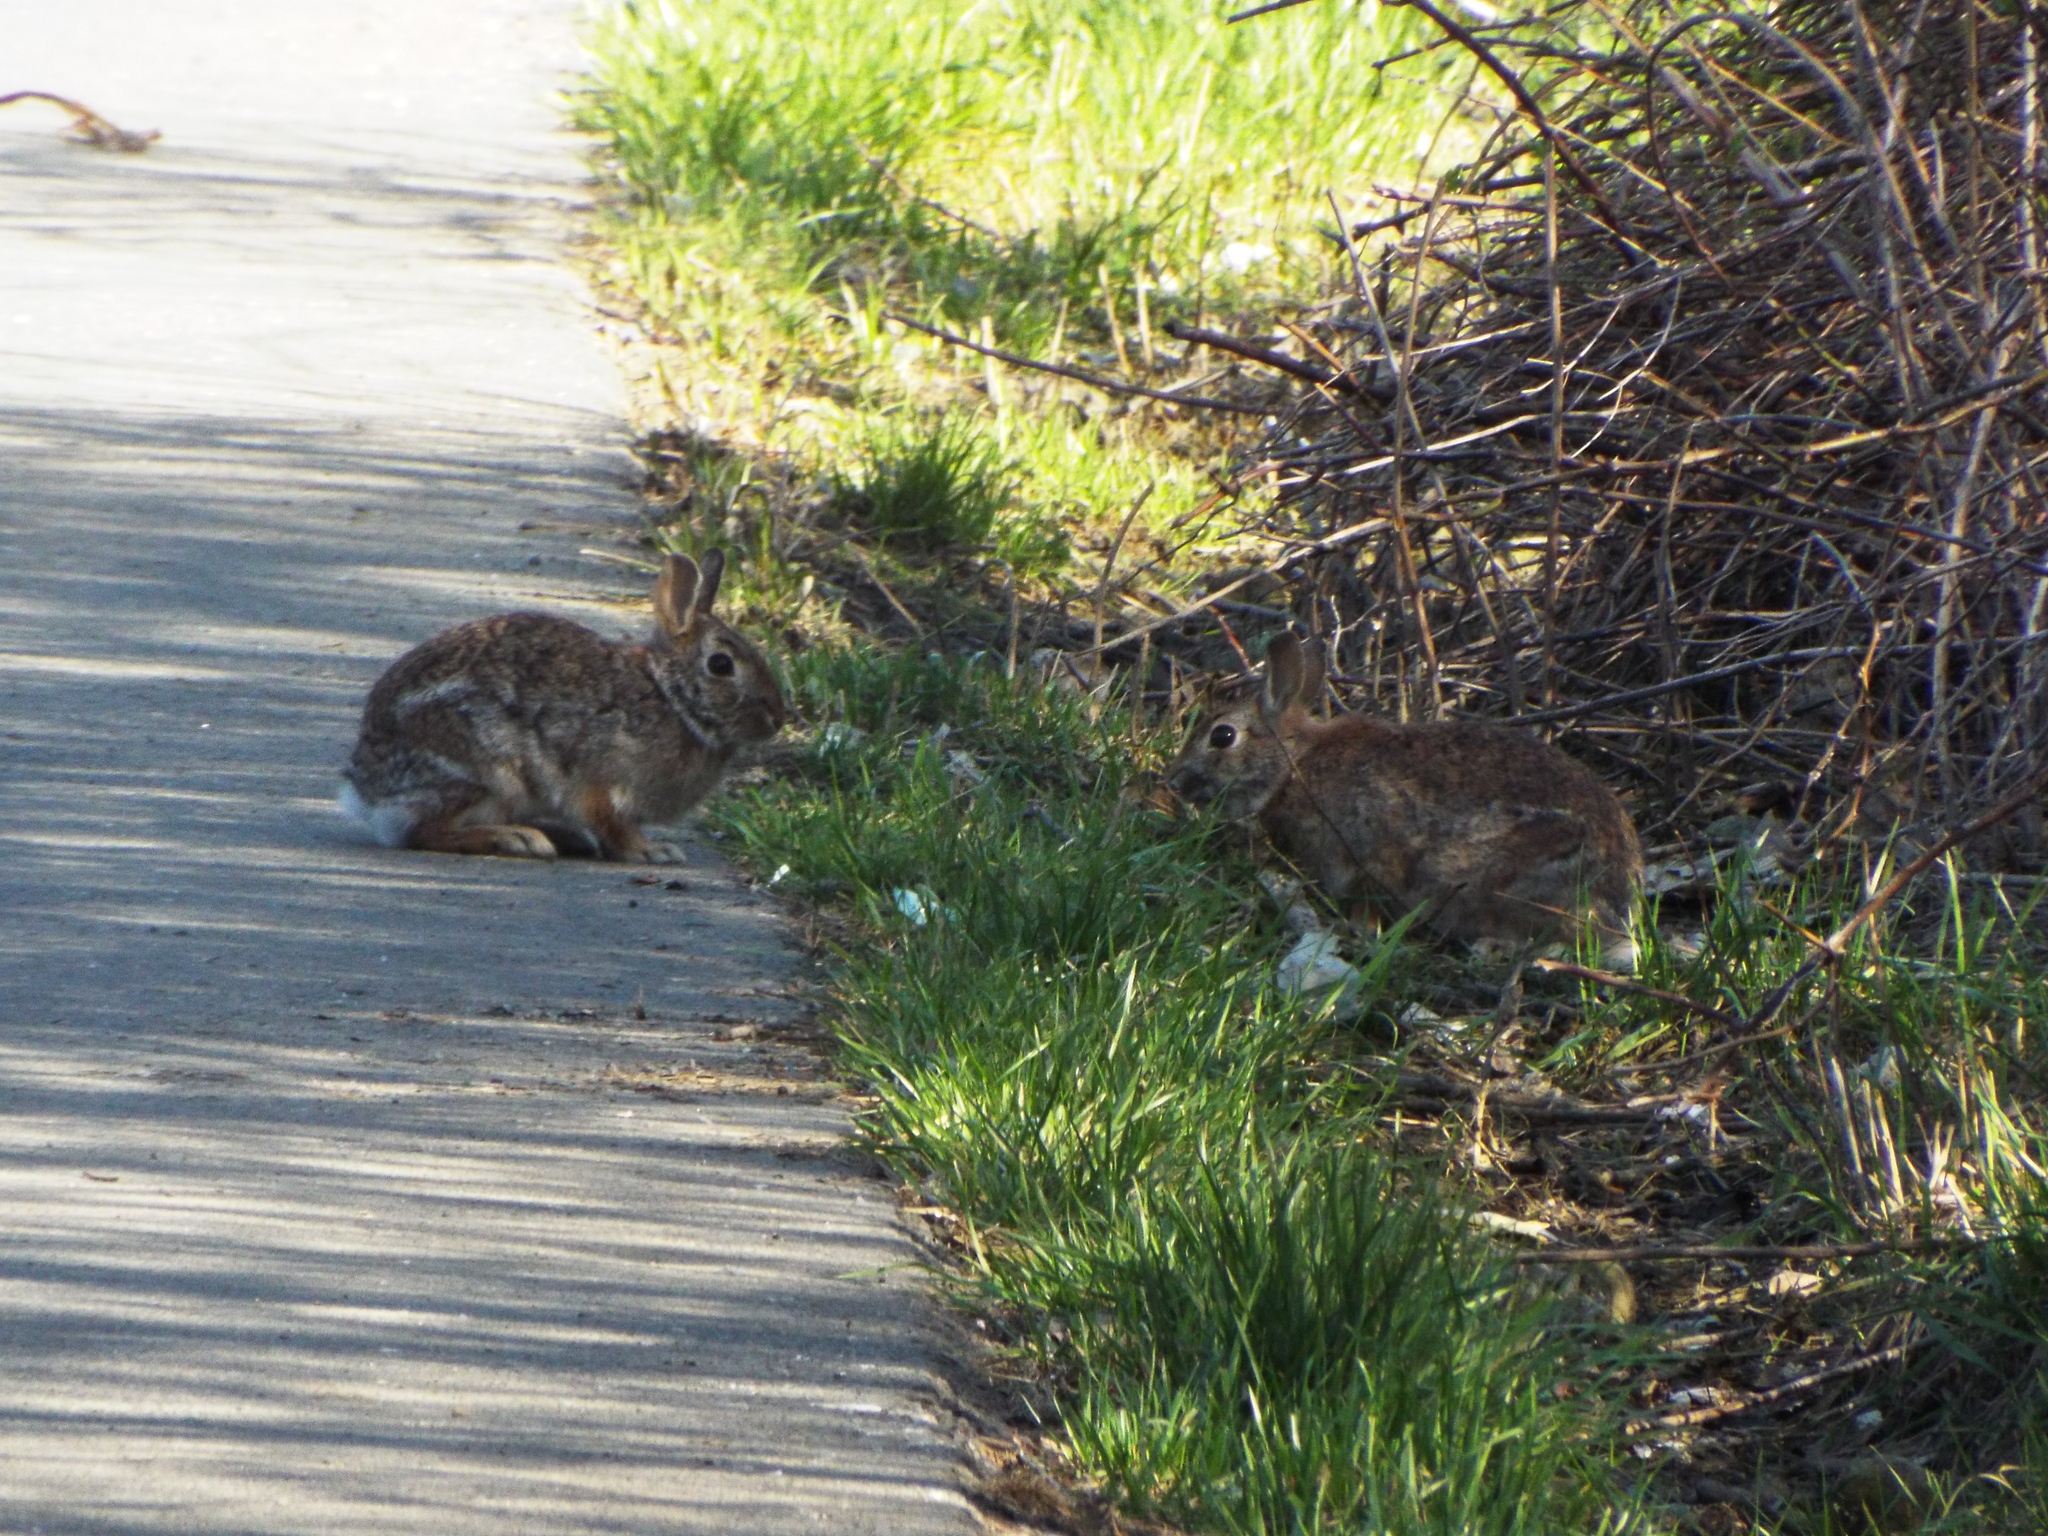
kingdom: Animalia
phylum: Chordata
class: Mammalia
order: Lagomorpha
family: Leporidae
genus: Sylvilagus
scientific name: Sylvilagus floridanus
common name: Eastern cottontail
